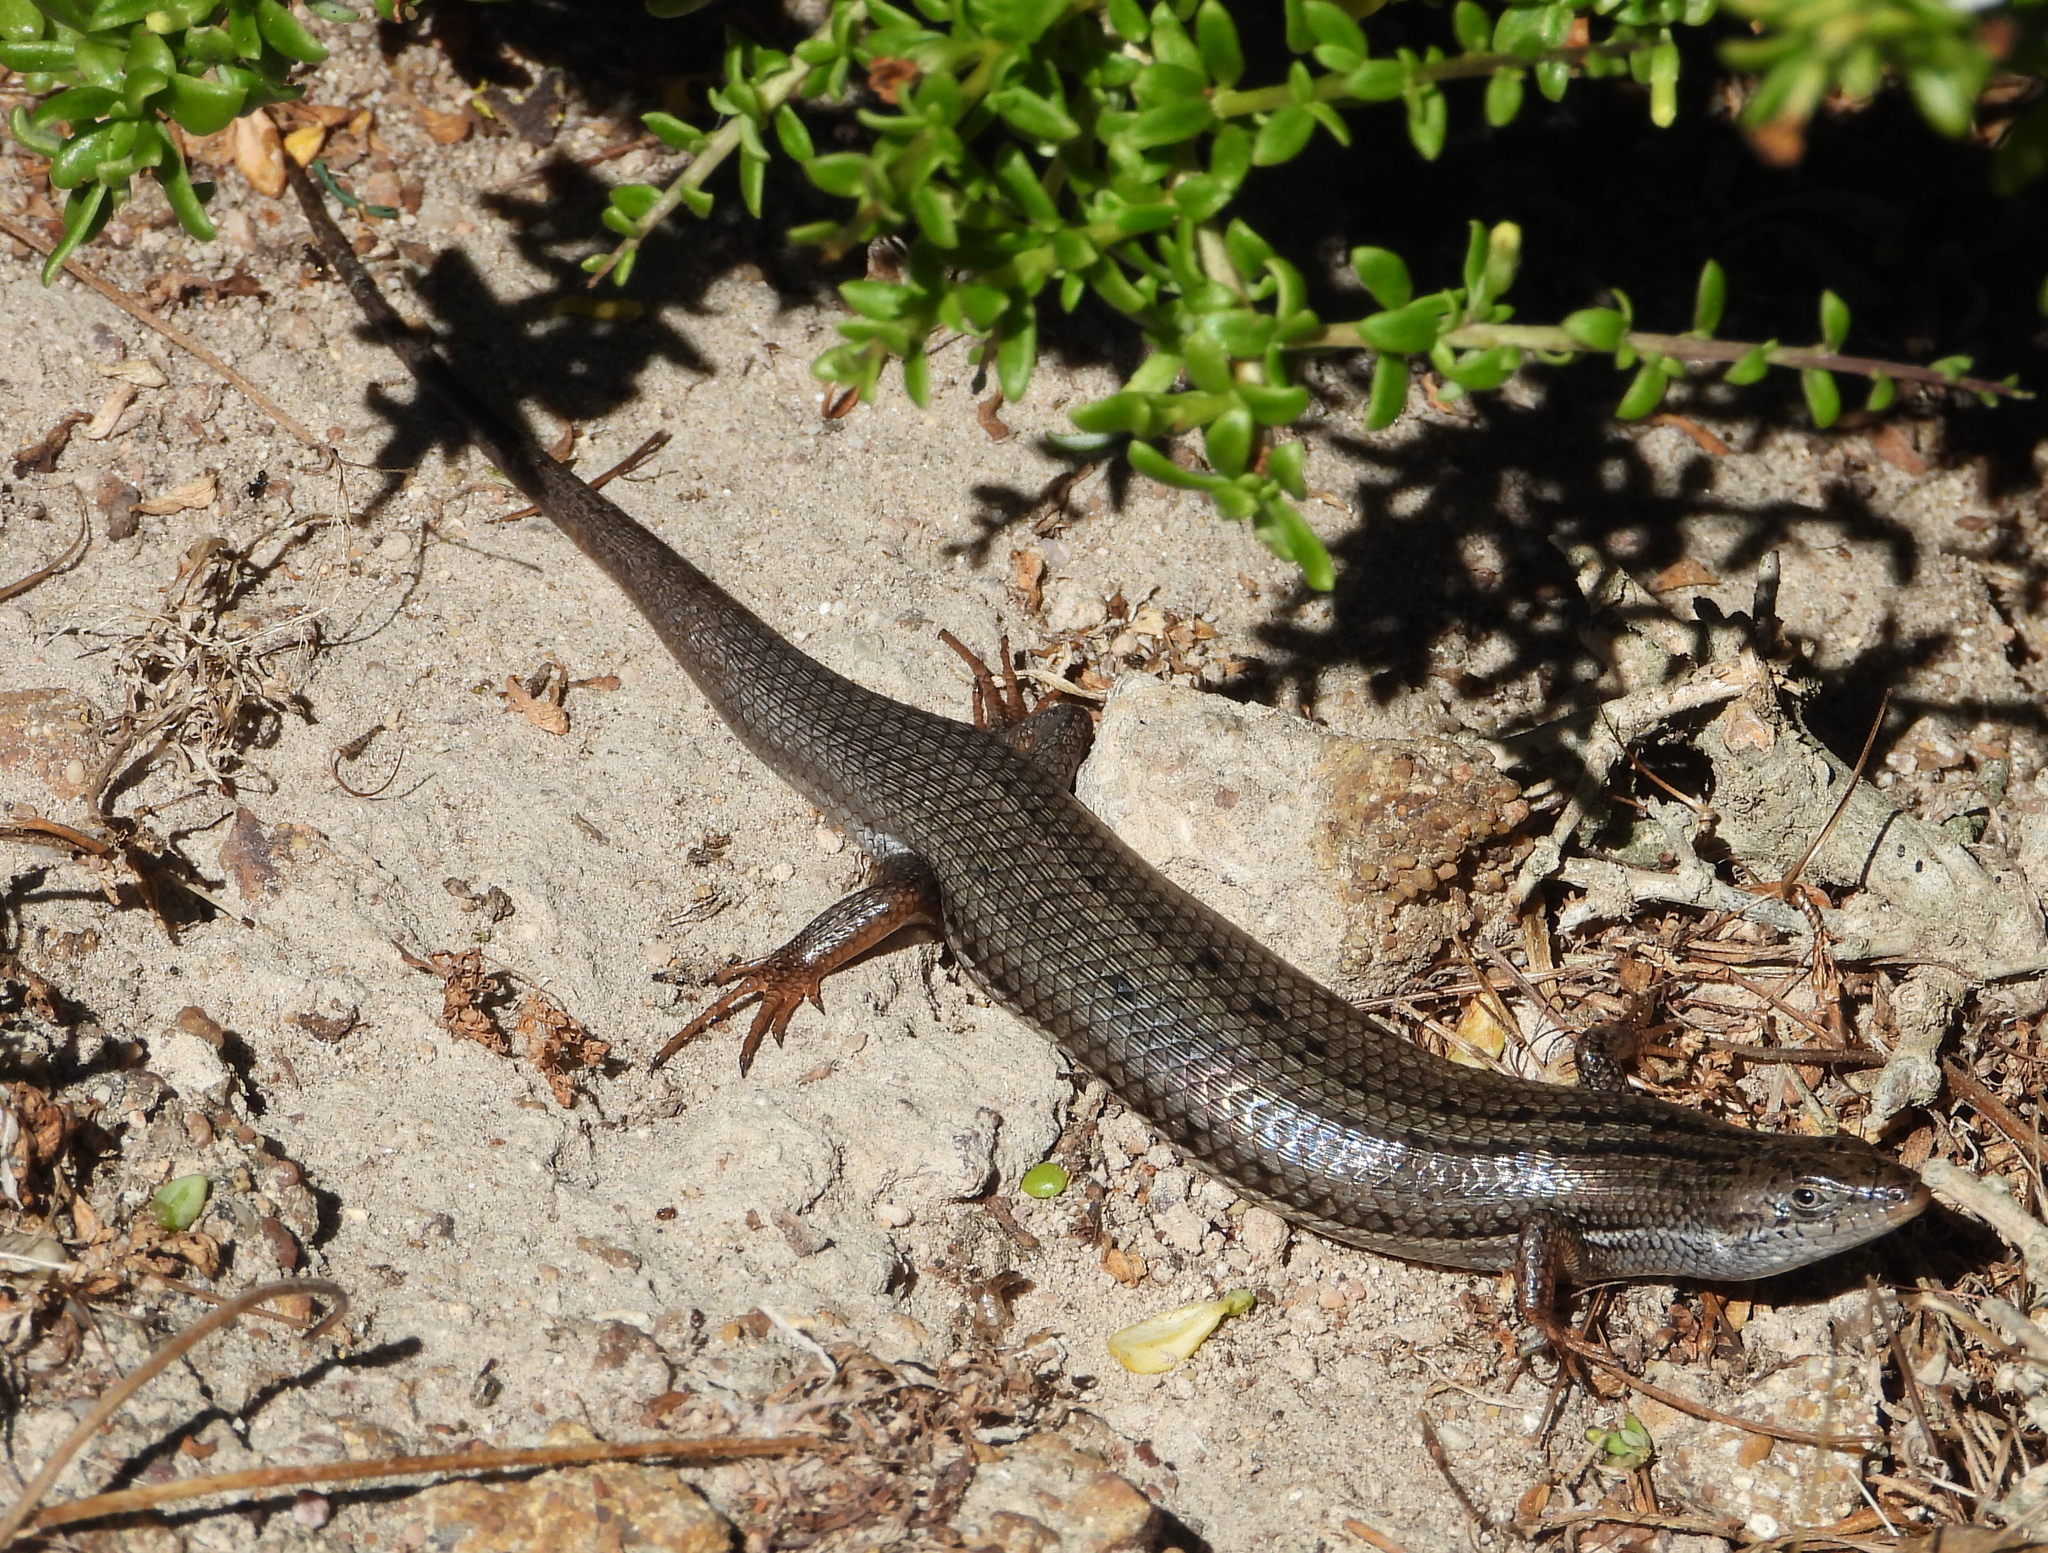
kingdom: Animalia
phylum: Chordata
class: Squamata
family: Scincidae
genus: Trachylepis
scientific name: Trachylepis homalocephala
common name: Red-sided skink
